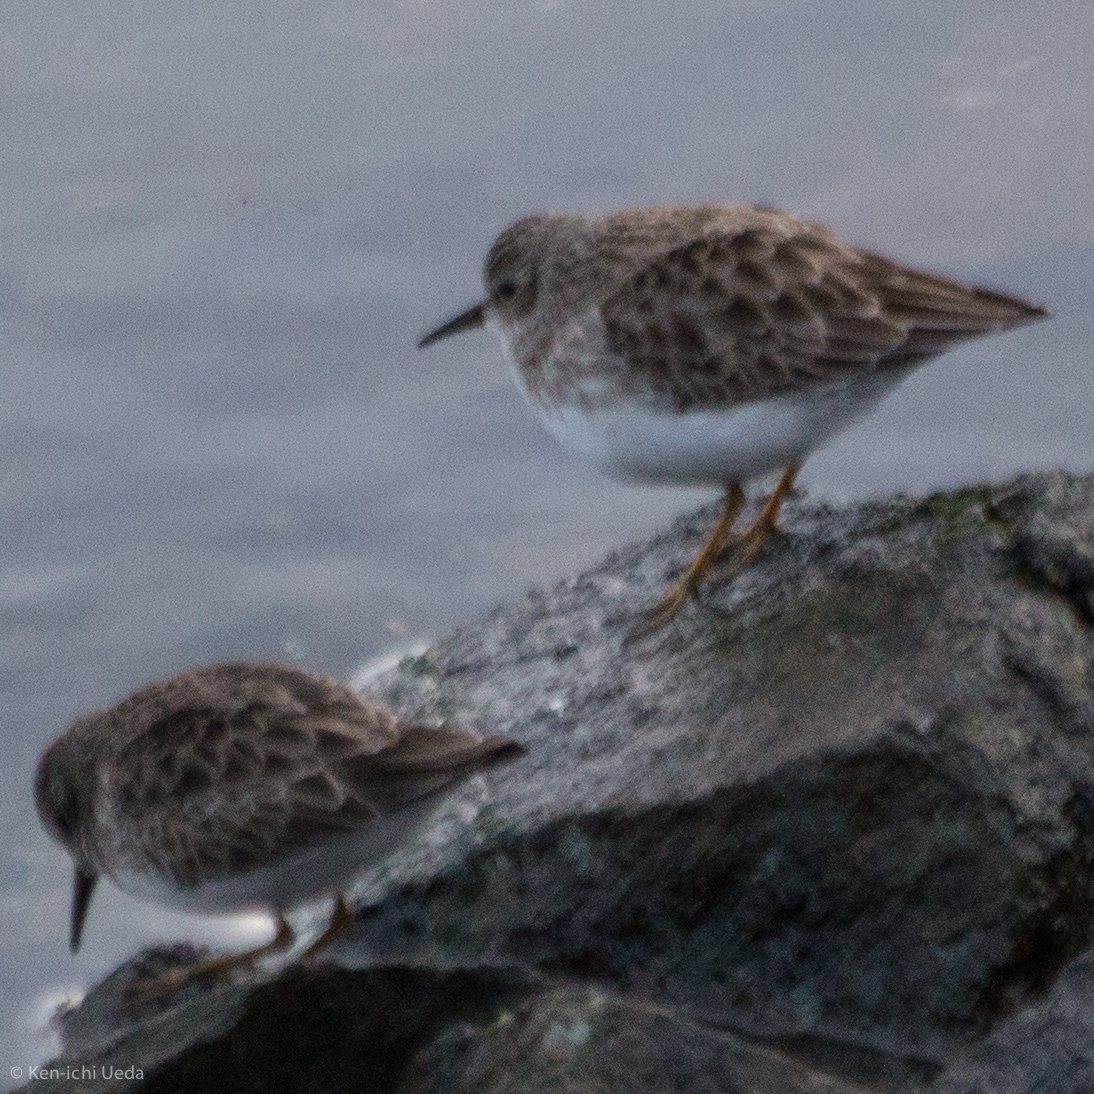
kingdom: Animalia
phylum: Chordata
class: Aves
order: Charadriiformes
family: Scolopacidae
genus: Calidris
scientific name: Calidris minutilla
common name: Least sandpiper
